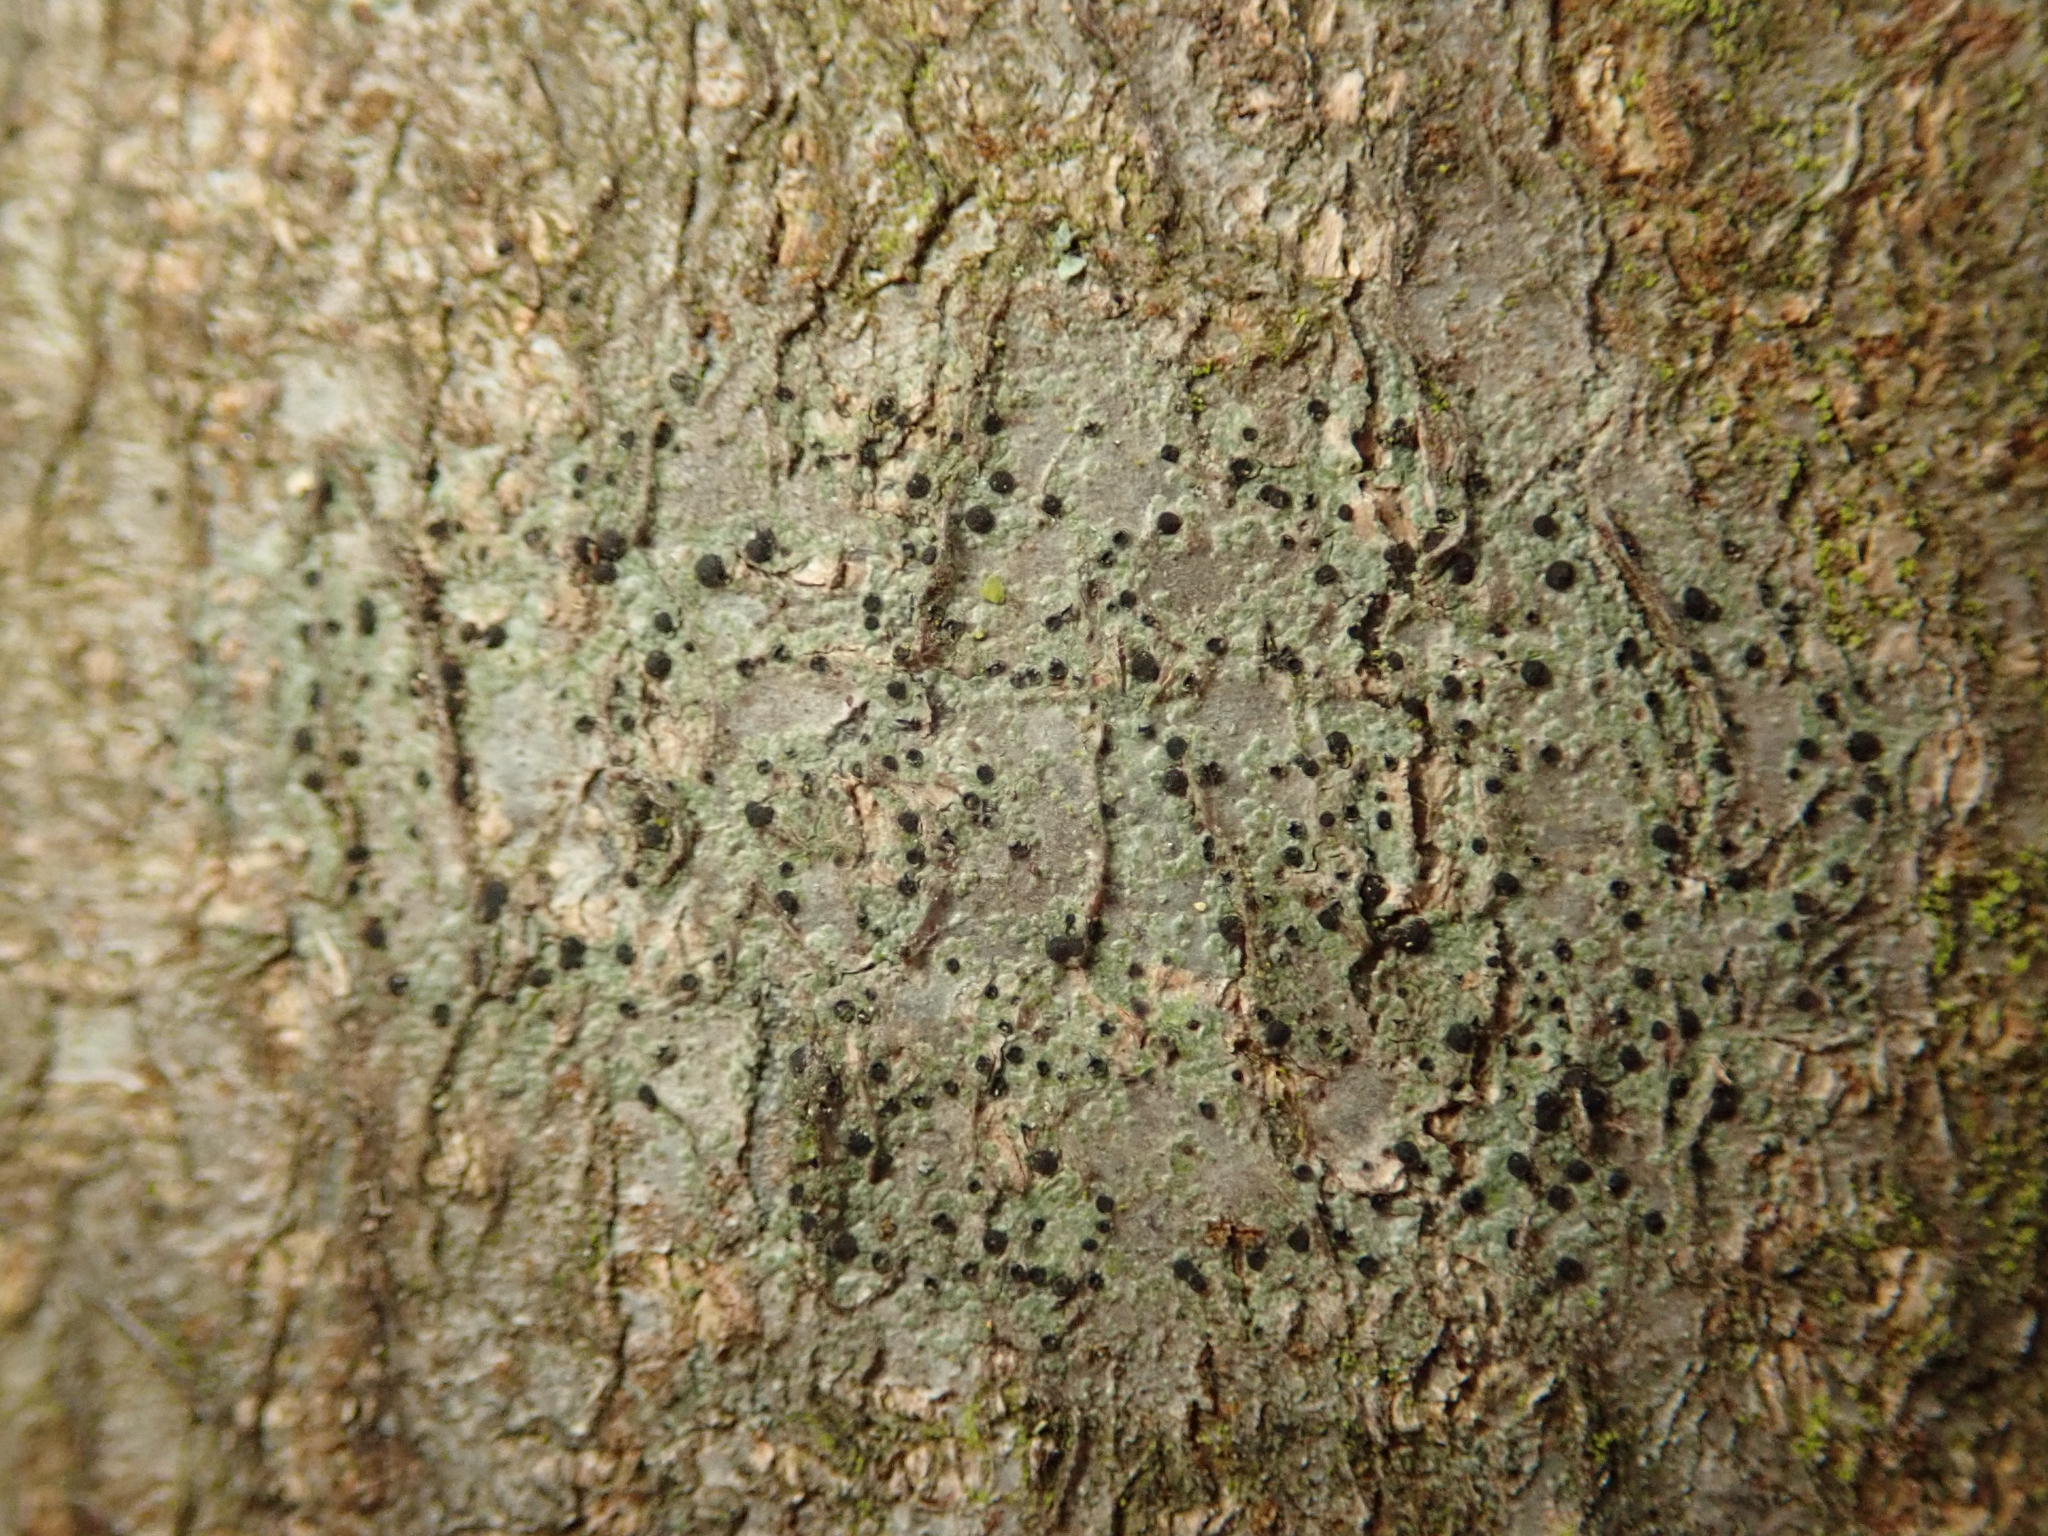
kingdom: Fungi
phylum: Ascomycota
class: Lecanoromycetes
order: Lecanorales
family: Lecanoraceae
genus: Lecidella
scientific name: Lecidella elaeochroma
